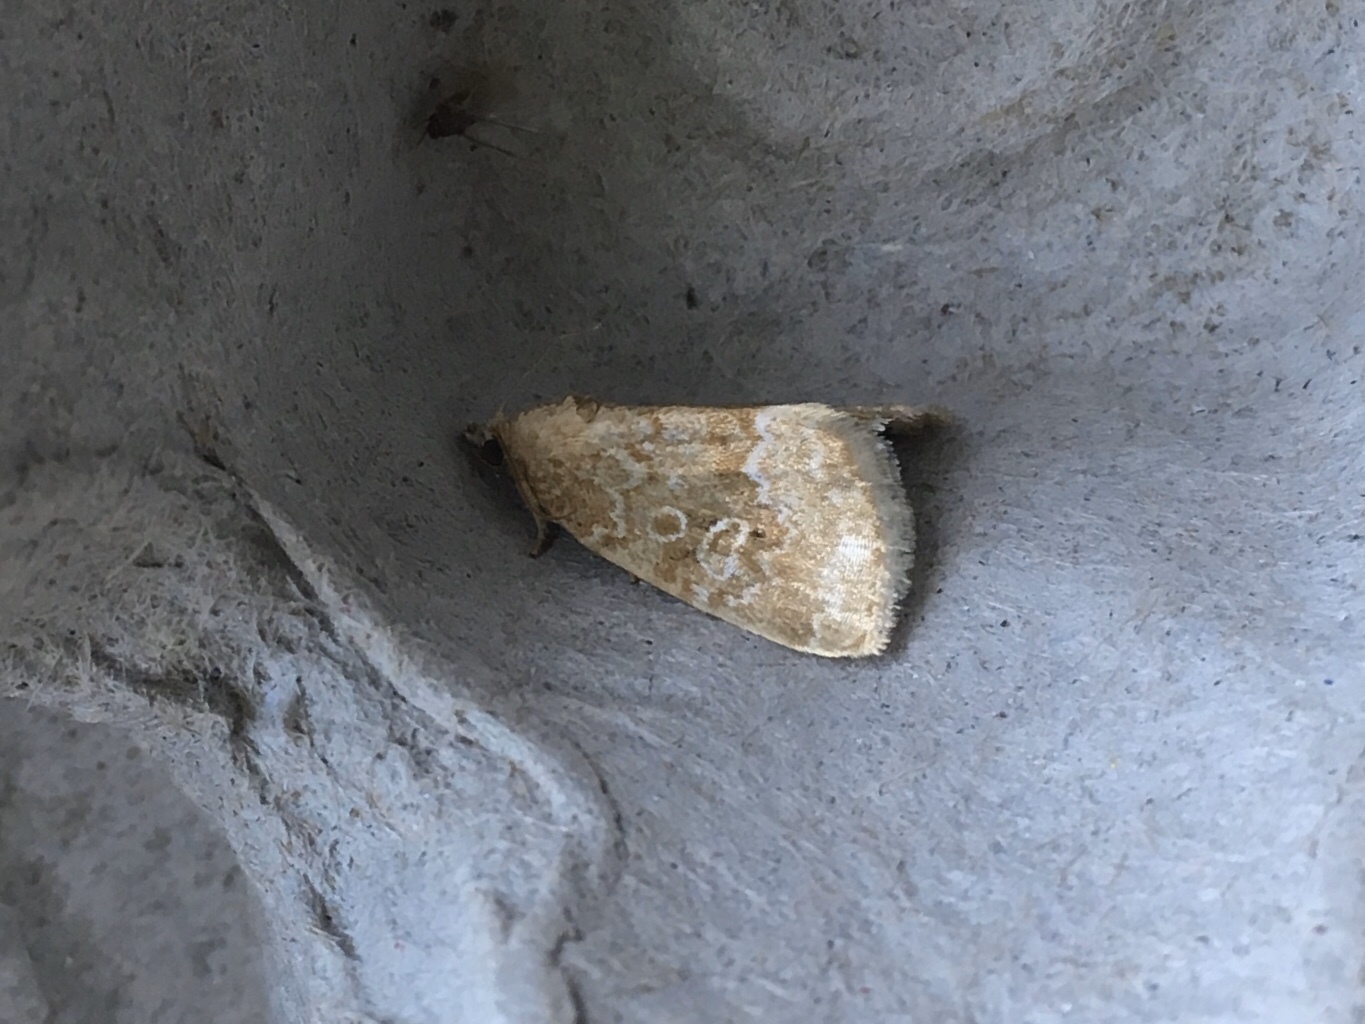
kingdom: Animalia
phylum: Arthropoda
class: Insecta
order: Lepidoptera
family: Noctuidae
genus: Protodeltote
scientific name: Protodeltote albidula
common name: Pale glyph
